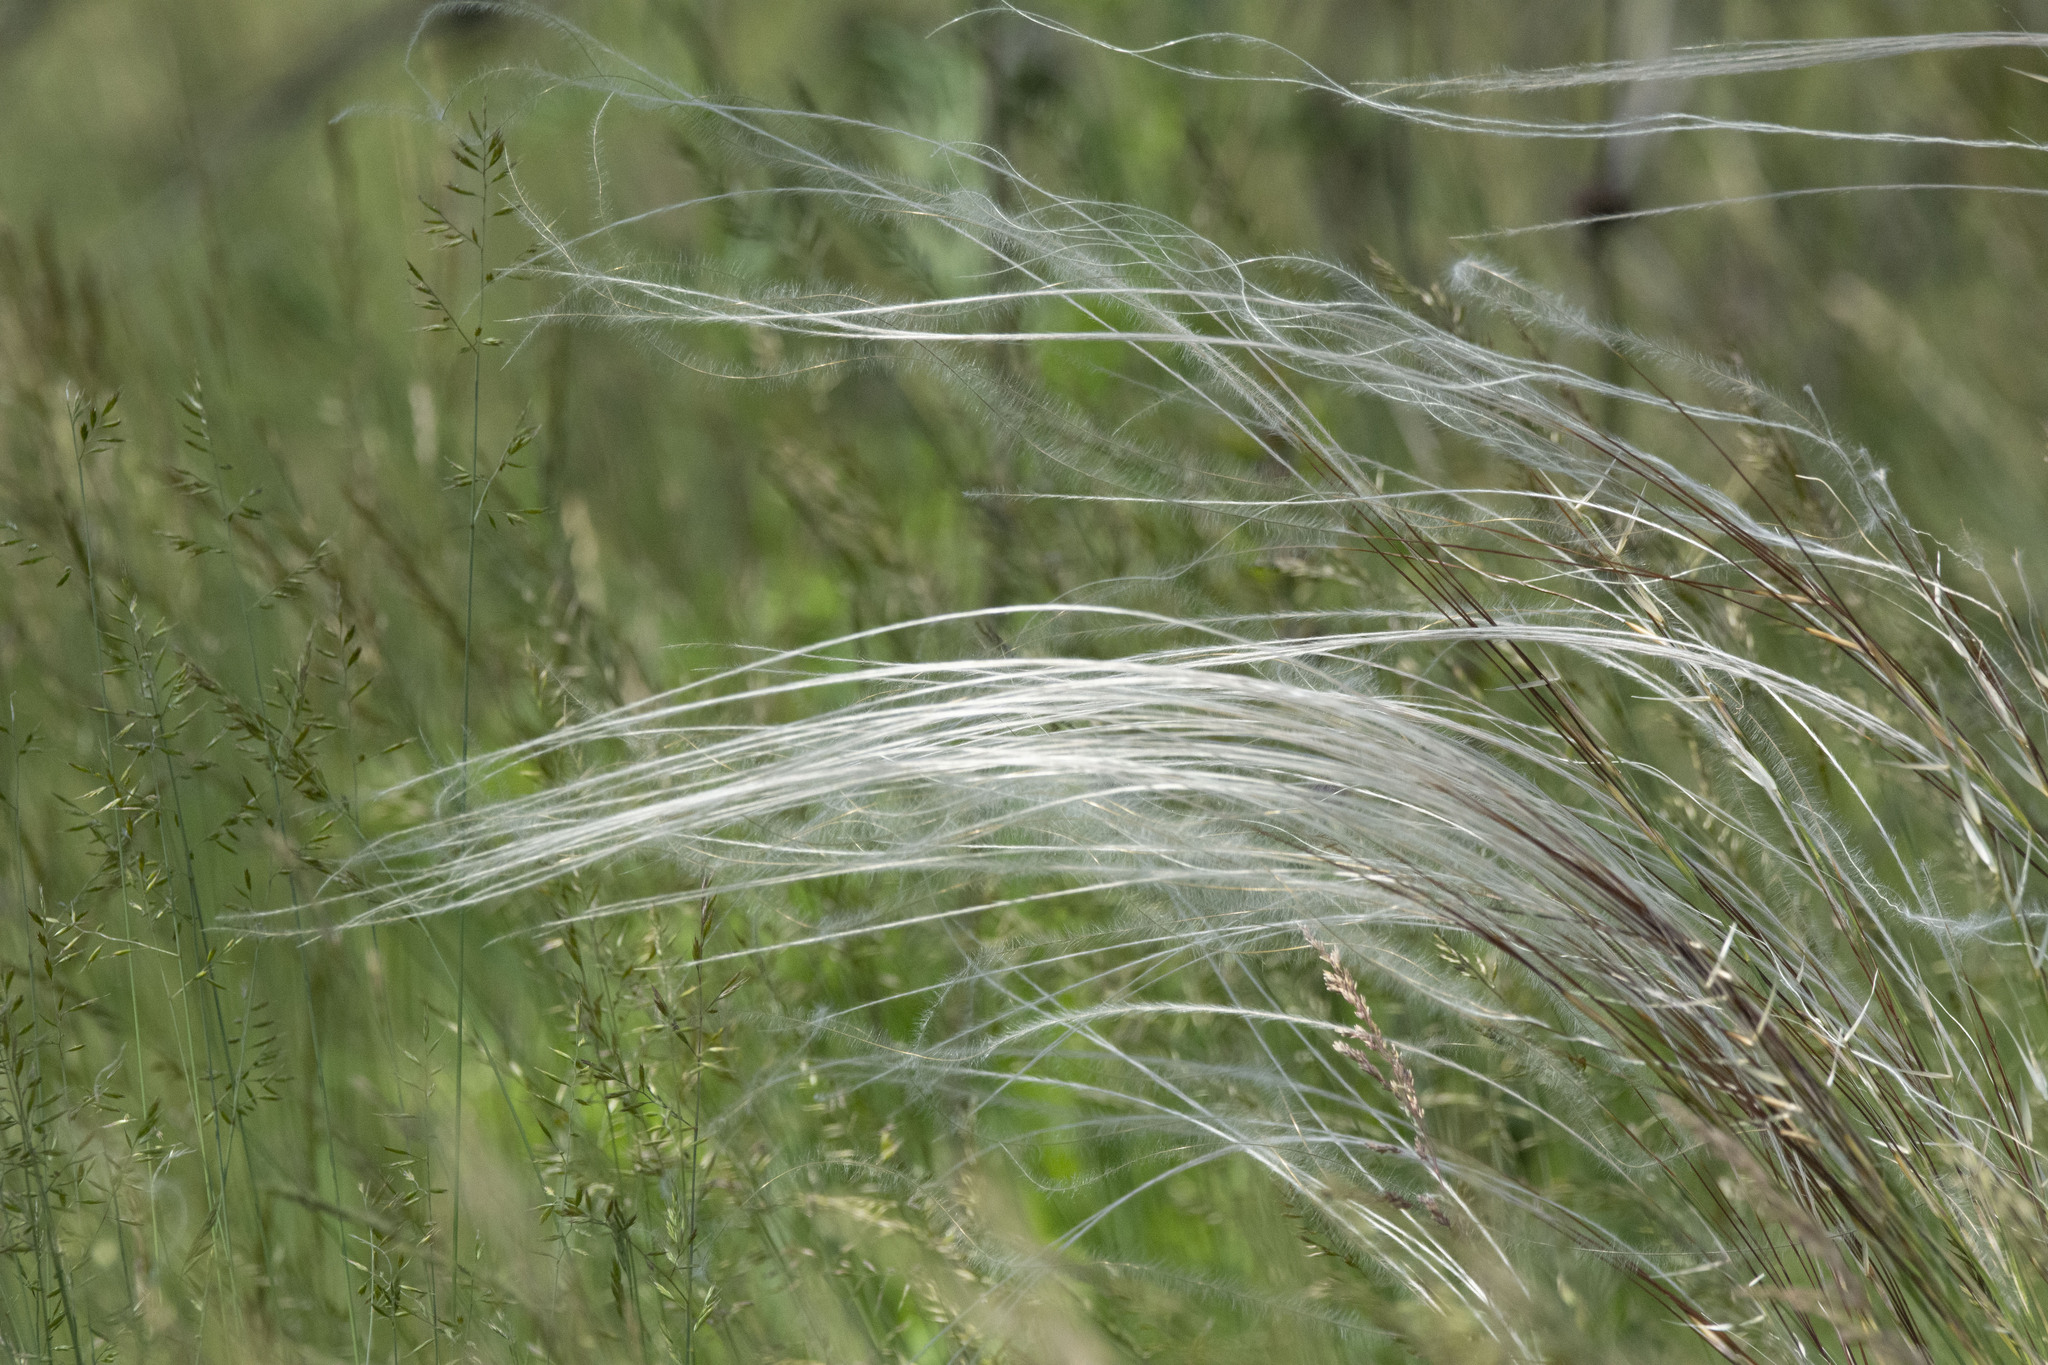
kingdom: Plantae
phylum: Tracheophyta
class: Liliopsida
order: Poales
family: Poaceae
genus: Stipa
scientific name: Stipa pennata
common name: European feather grass
